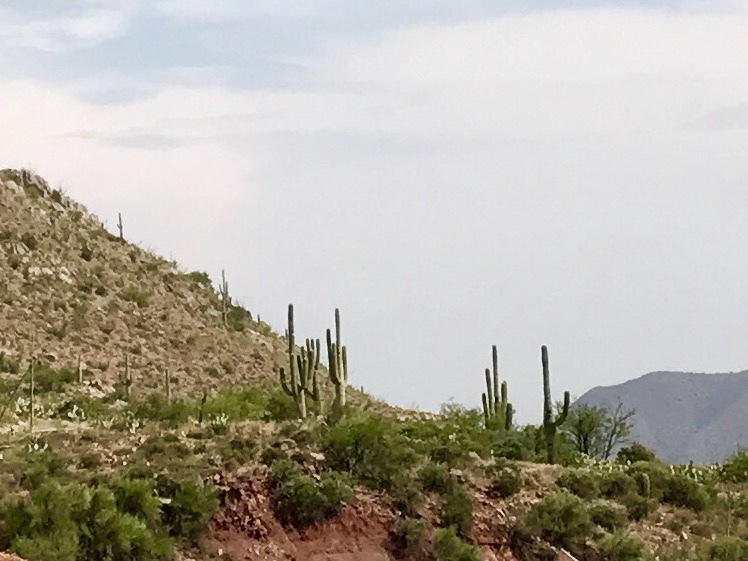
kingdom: Plantae
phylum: Tracheophyta
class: Magnoliopsida
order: Caryophyllales
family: Cactaceae
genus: Carnegiea
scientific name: Carnegiea gigantea
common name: Saguaro
